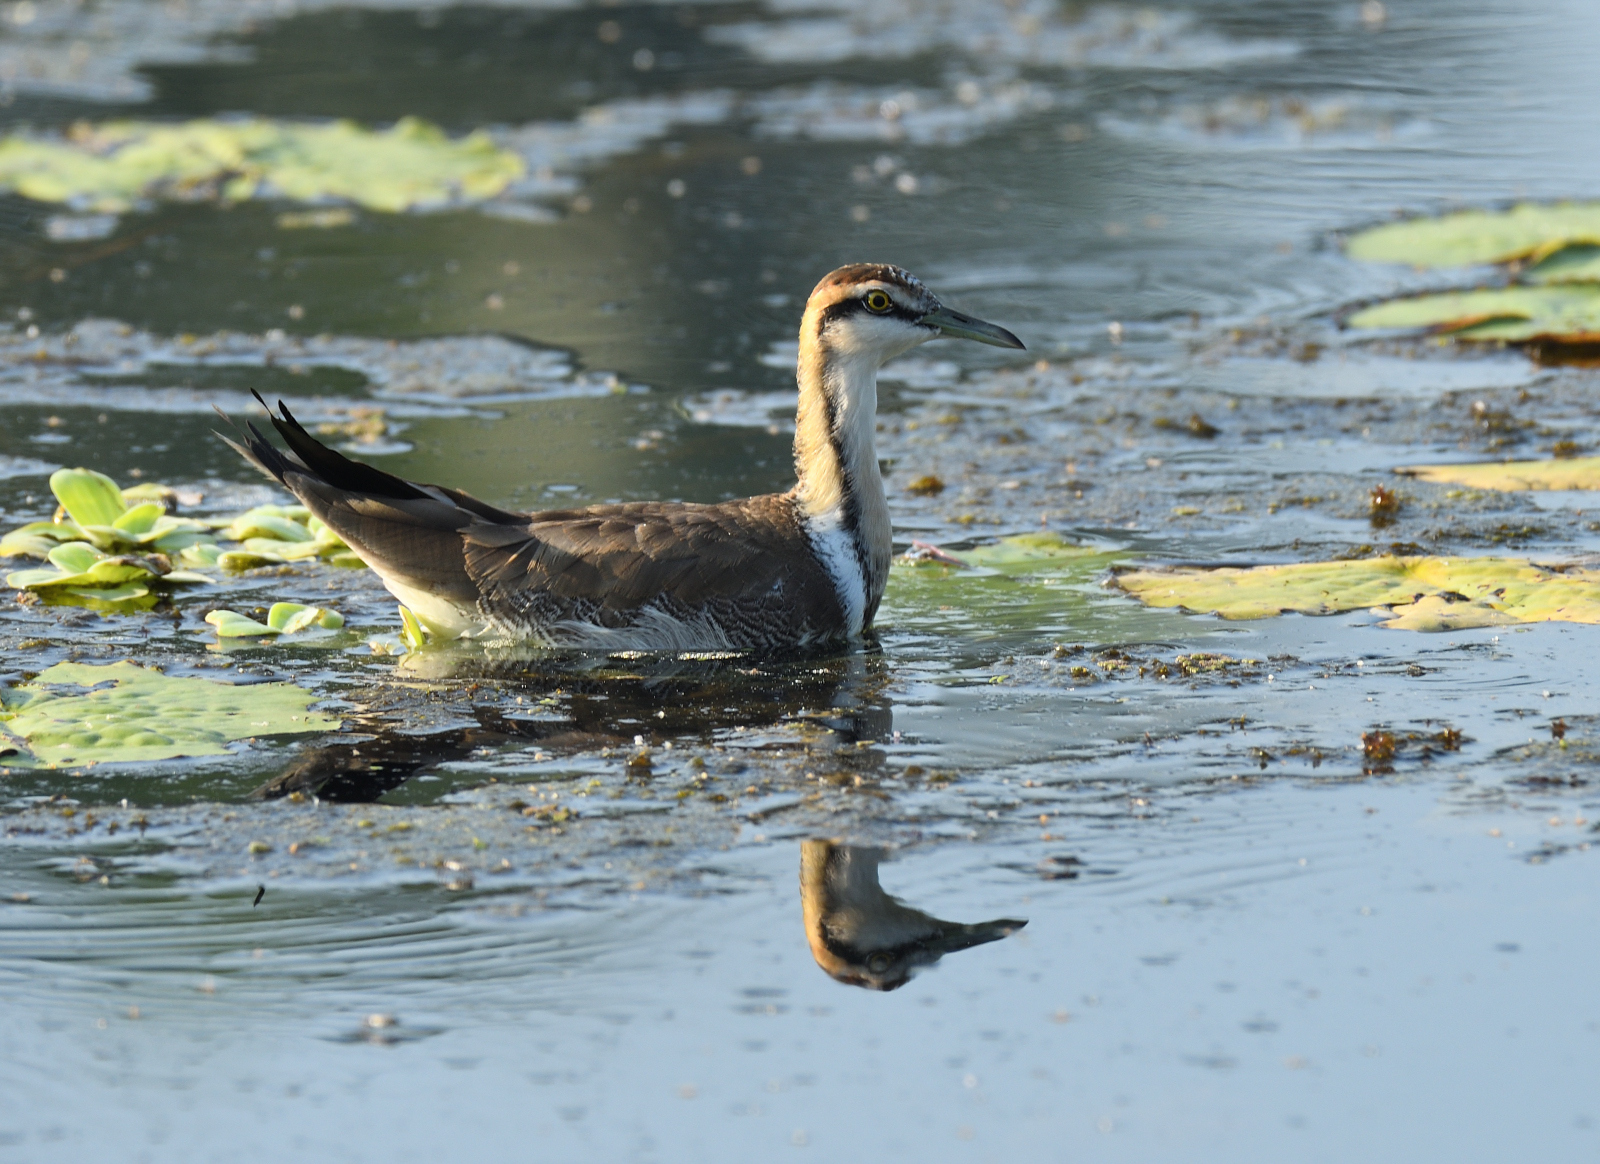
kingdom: Animalia
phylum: Chordata
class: Aves
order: Charadriiformes
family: Jacanidae
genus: Hydrophasianus
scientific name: Hydrophasianus chirurgus
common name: Pheasant-tailed jacana
